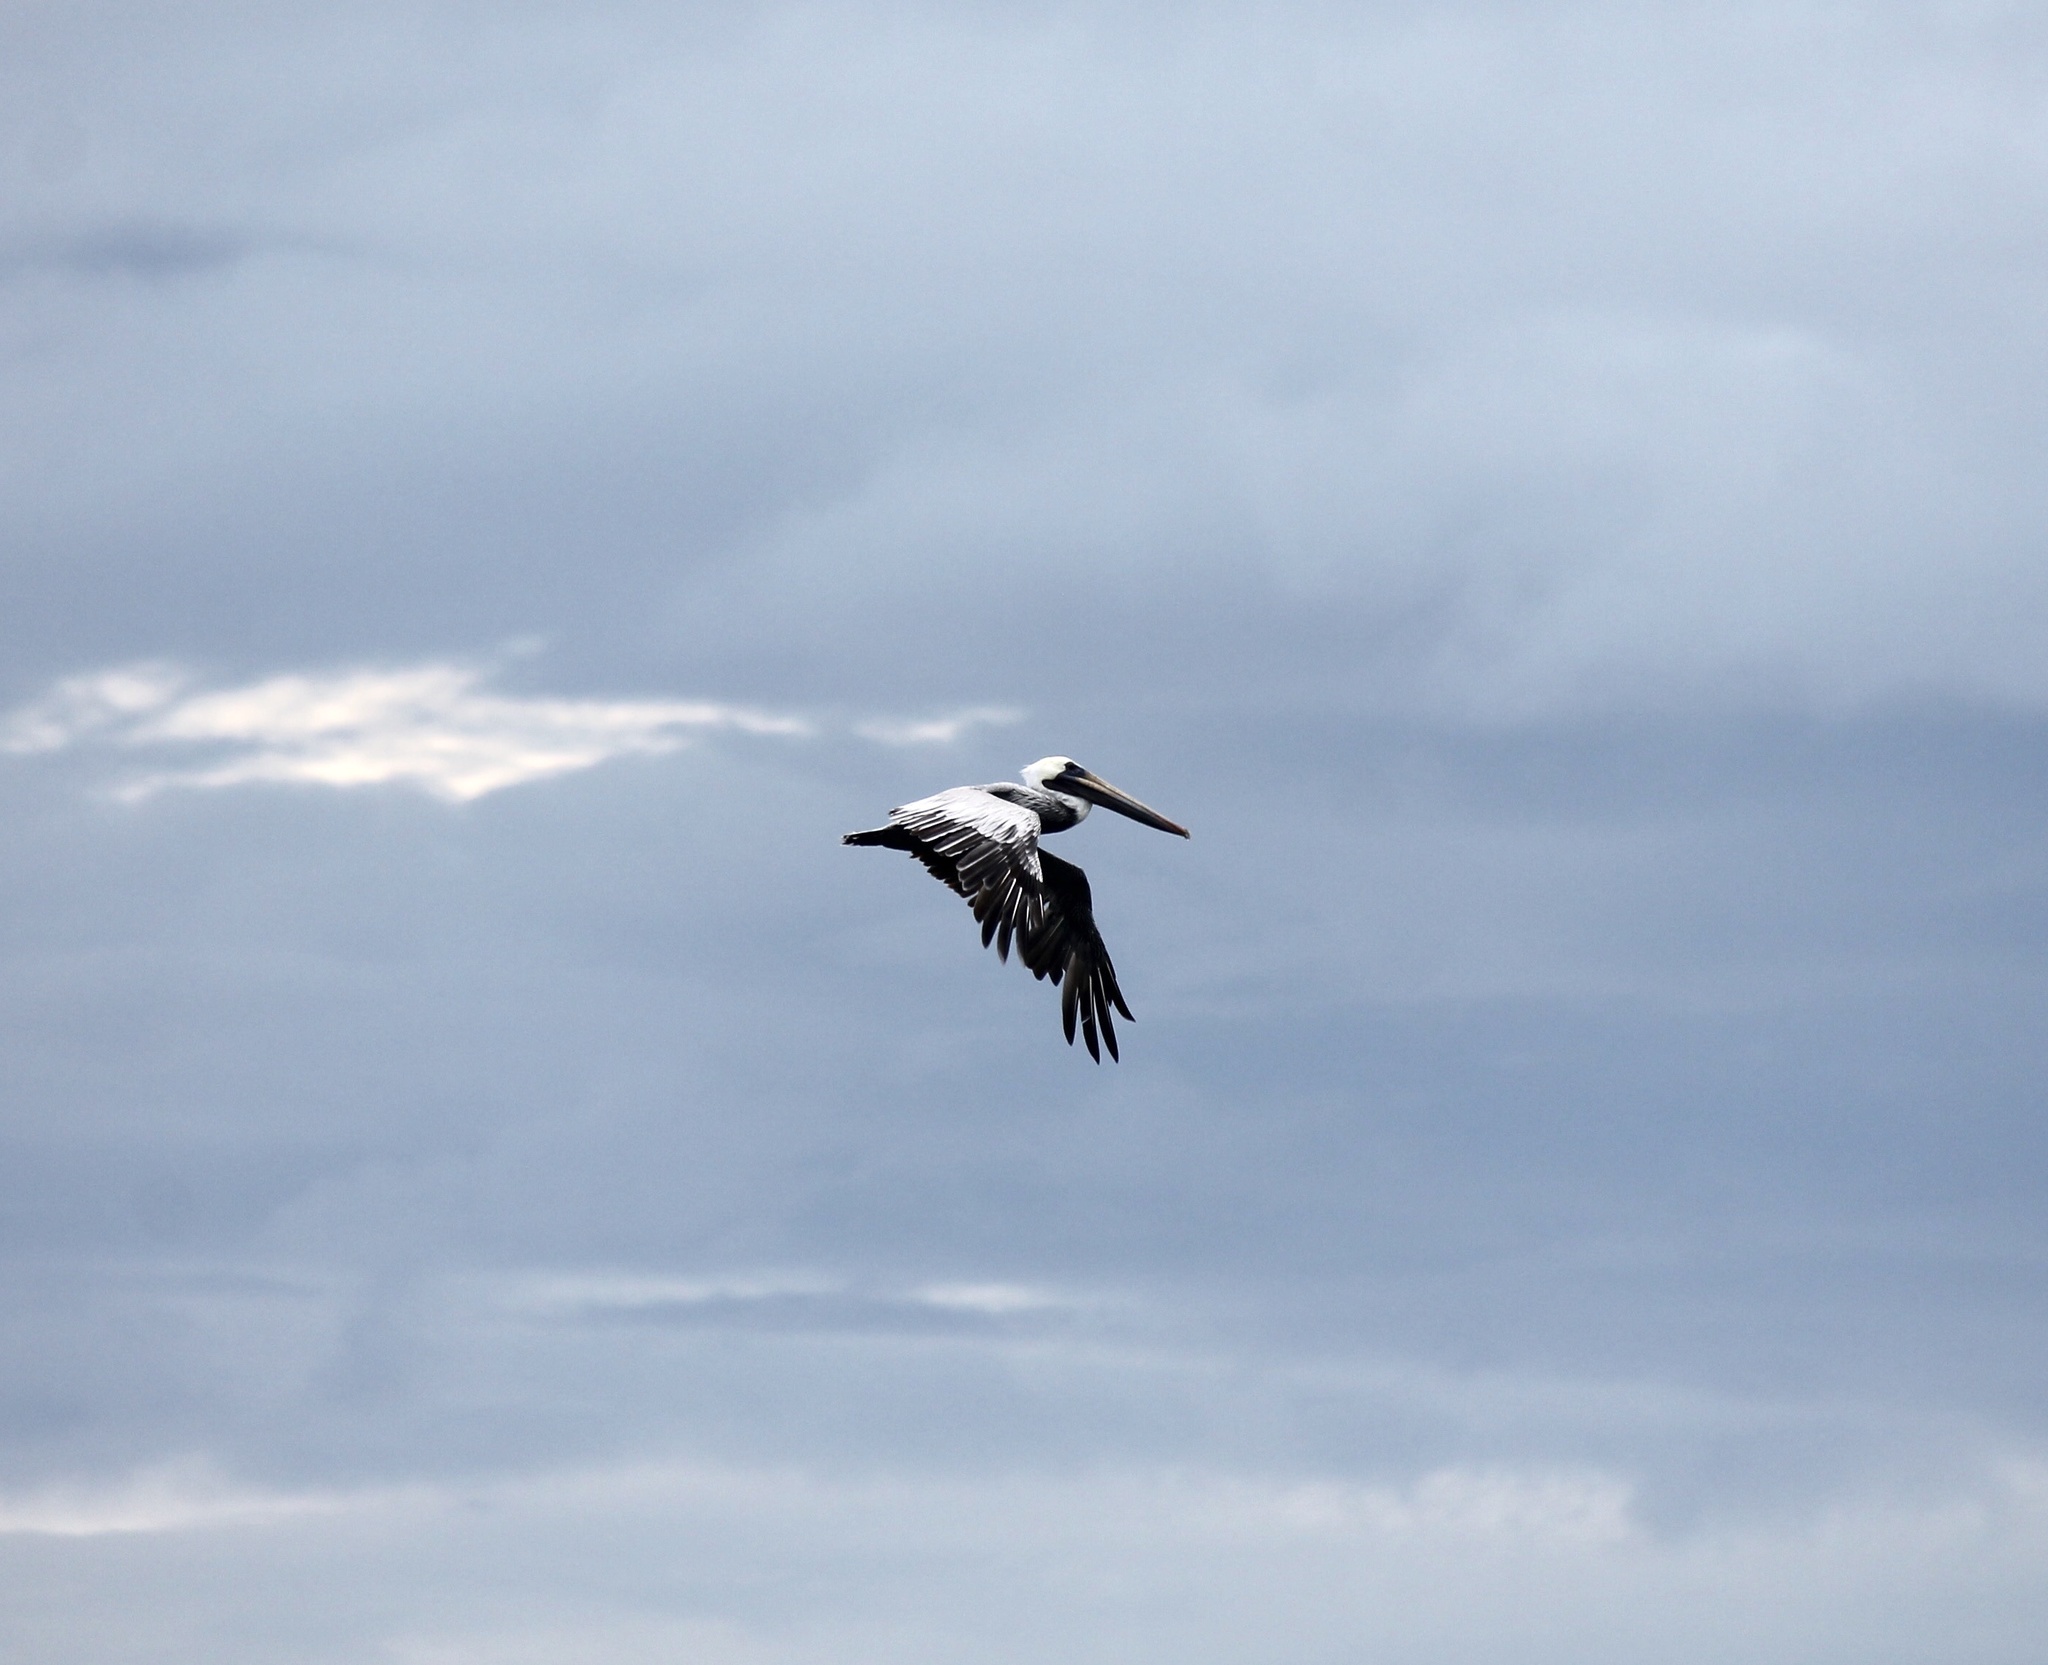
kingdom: Animalia
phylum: Chordata
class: Aves
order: Pelecaniformes
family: Pelecanidae
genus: Pelecanus
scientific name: Pelecanus occidentalis
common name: Brown pelican
